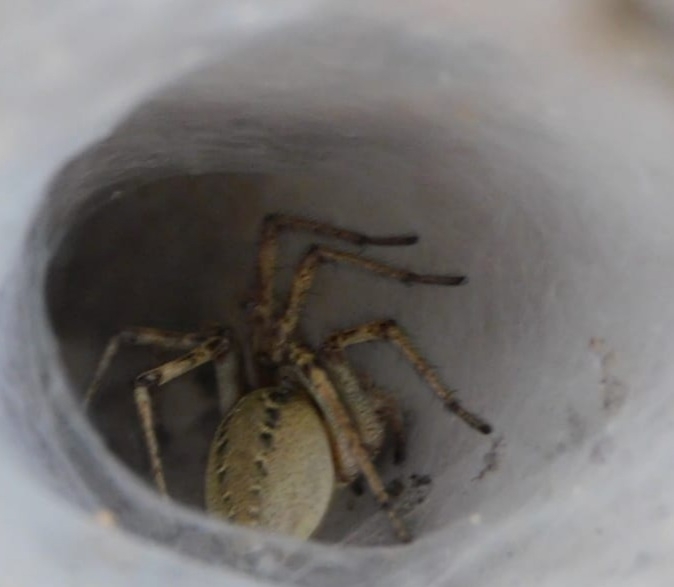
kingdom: Animalia
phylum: Arthropoda
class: Arachnida
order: Araneae
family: Agelenidae
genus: Agelena
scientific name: Agelena labyrinthica
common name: Labyrinth spider
